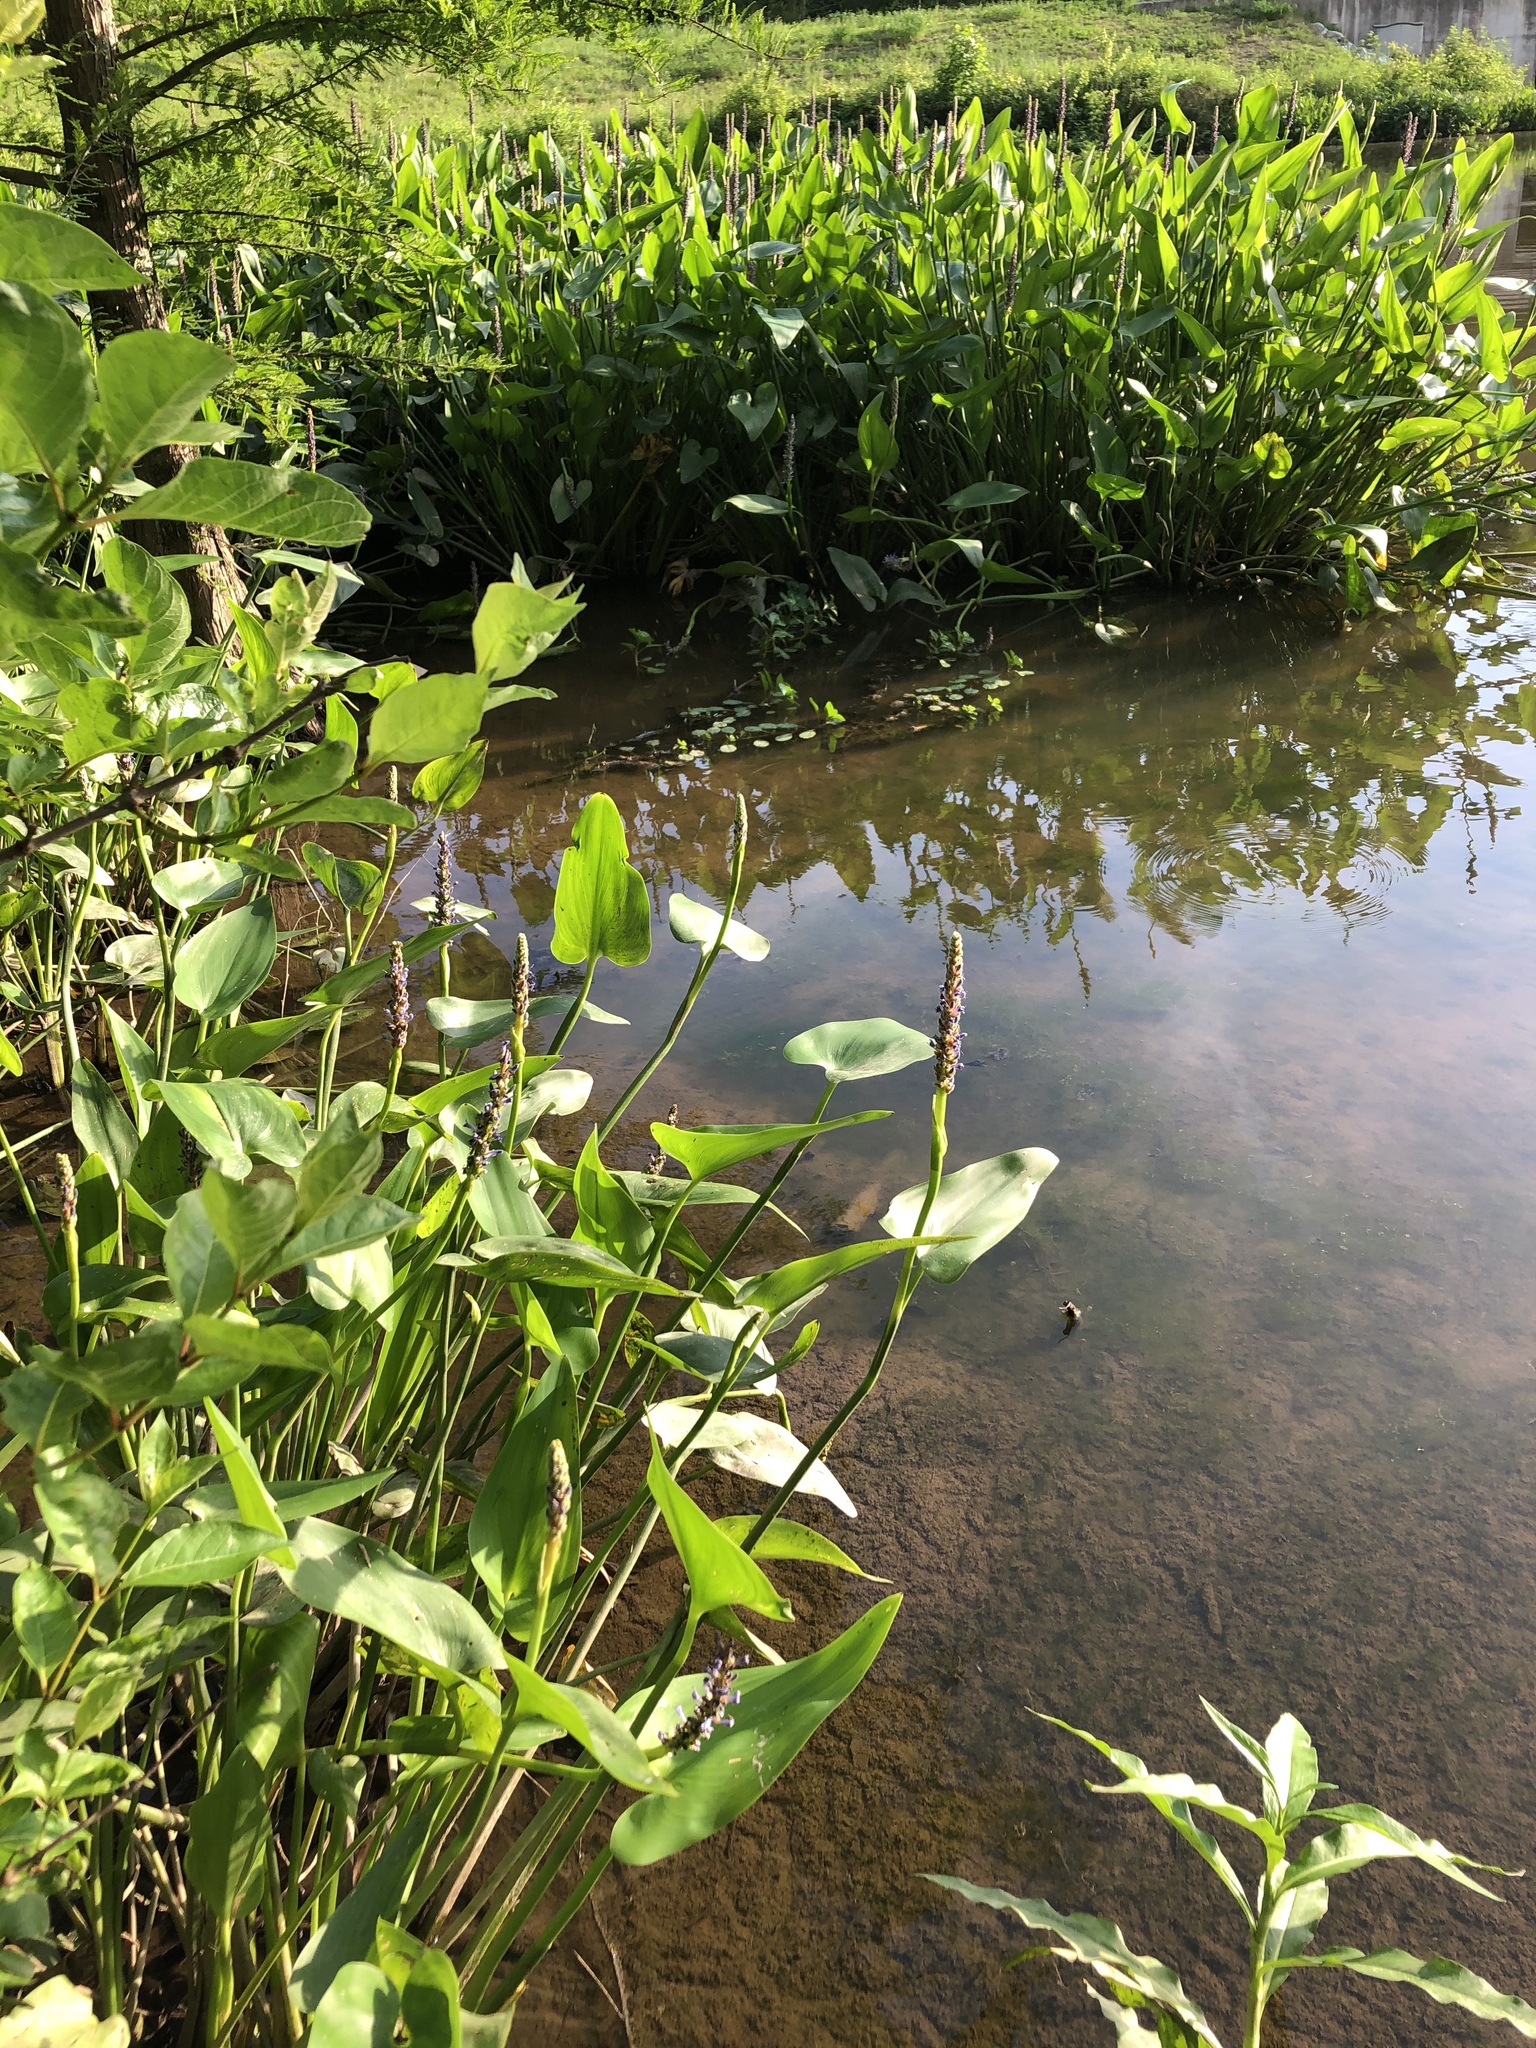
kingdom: Plantae
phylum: Tracheophyta
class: Liliopsida
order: Commelinales
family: Pontederiaceae
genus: Pontederia
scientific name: Pontederia cordata
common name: Pickerelweed
